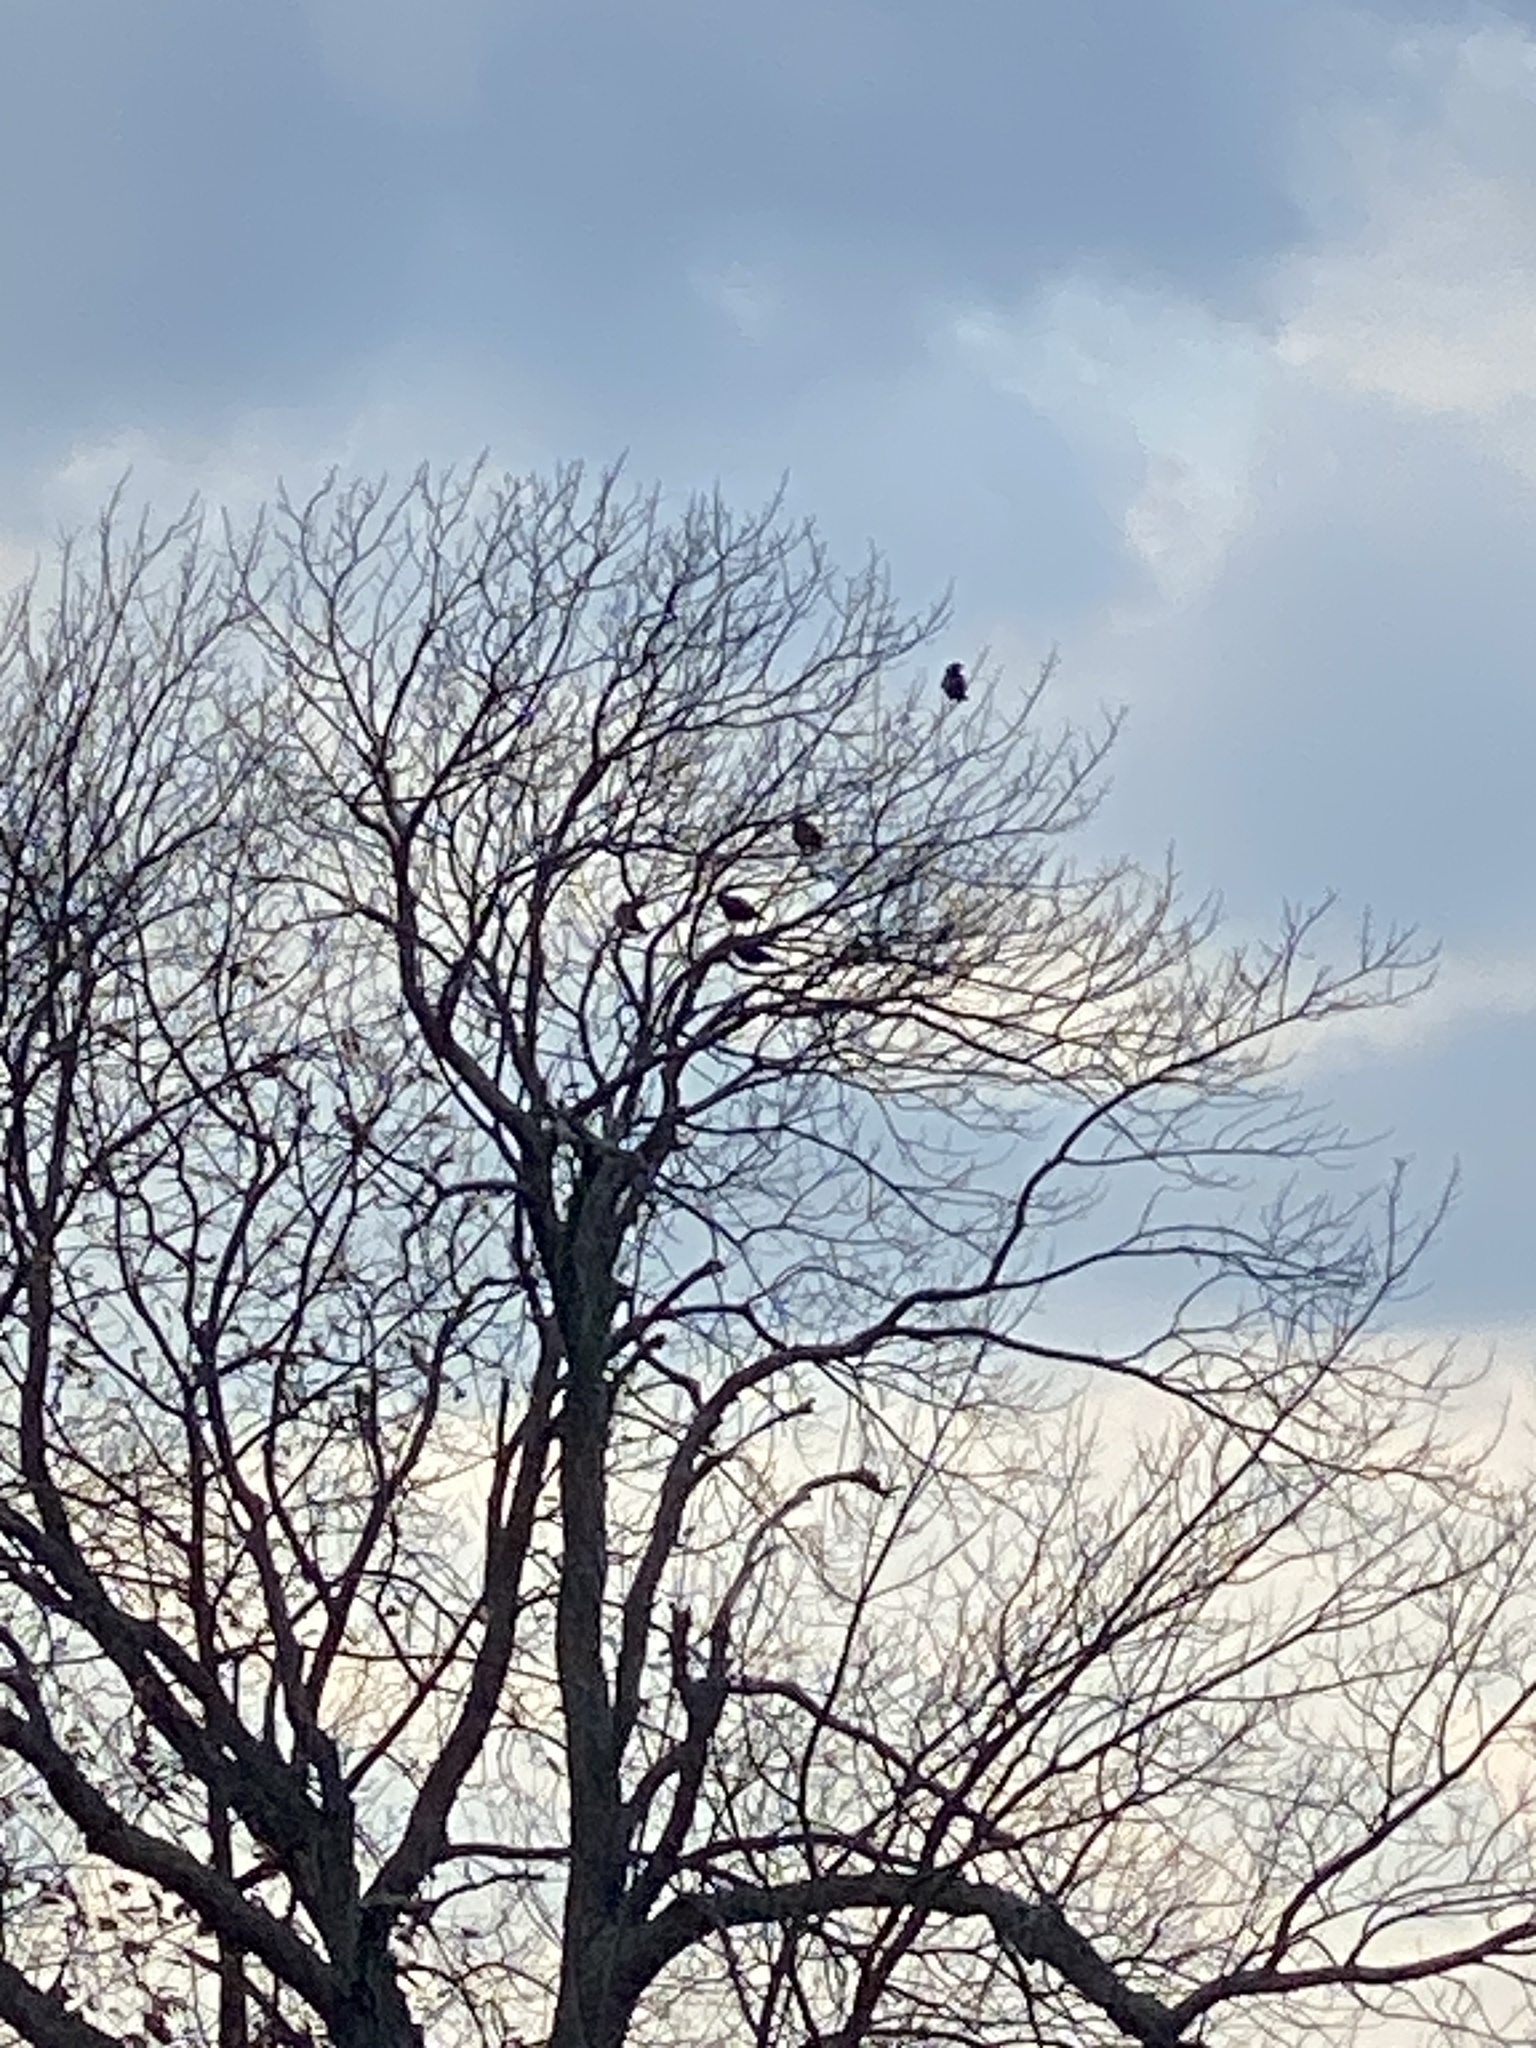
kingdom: Animalia
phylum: Chordata
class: Aves
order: Passeriformes
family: Corvidae
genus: Corvus
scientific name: Corvus brachyrhynchos
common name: American crow
